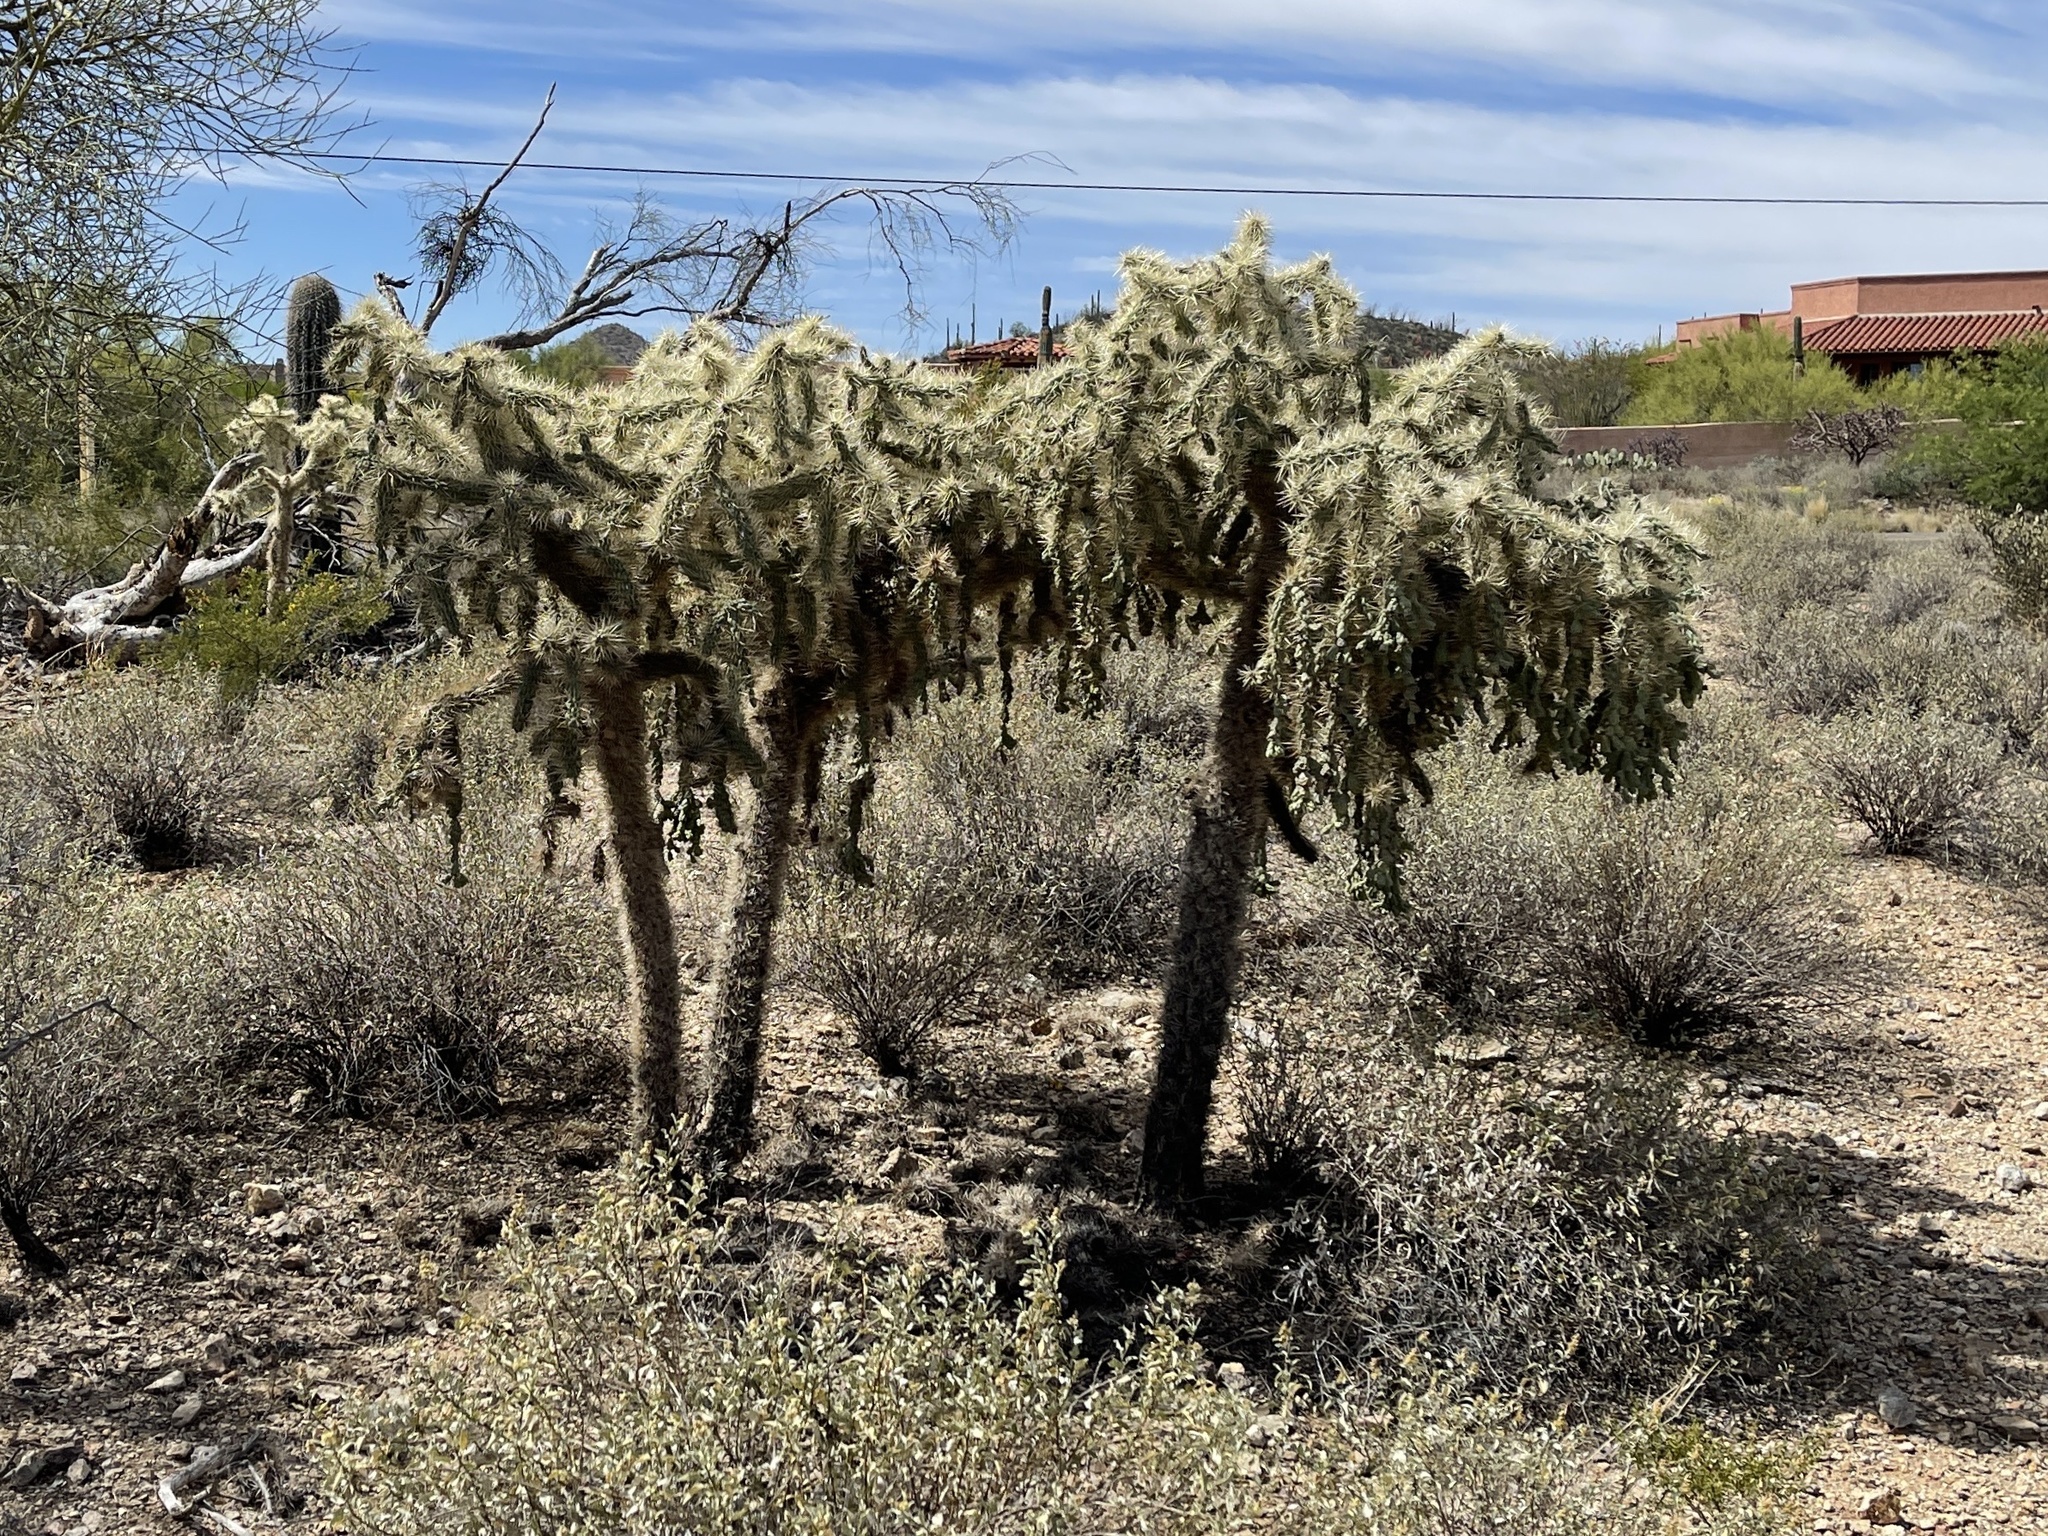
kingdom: Plantae
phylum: Tracheophyta
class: Magnoliopsida
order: Caryophyllales
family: Cactaceae
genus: Cylindropuntia
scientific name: Cylindropuntia fulgida
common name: Jumping cholla
